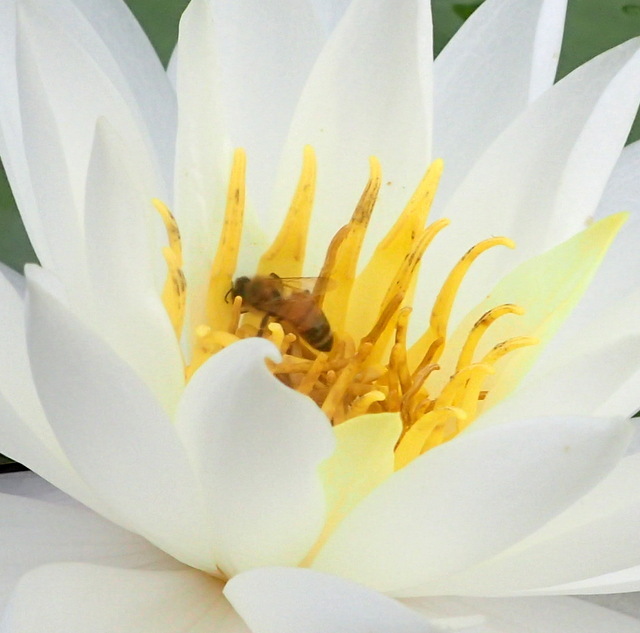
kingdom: Animalia
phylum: Arthropoda
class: Insecta
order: Hymenoptera
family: Apidae
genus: Apis
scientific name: Apis mellifera
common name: Honey bee
